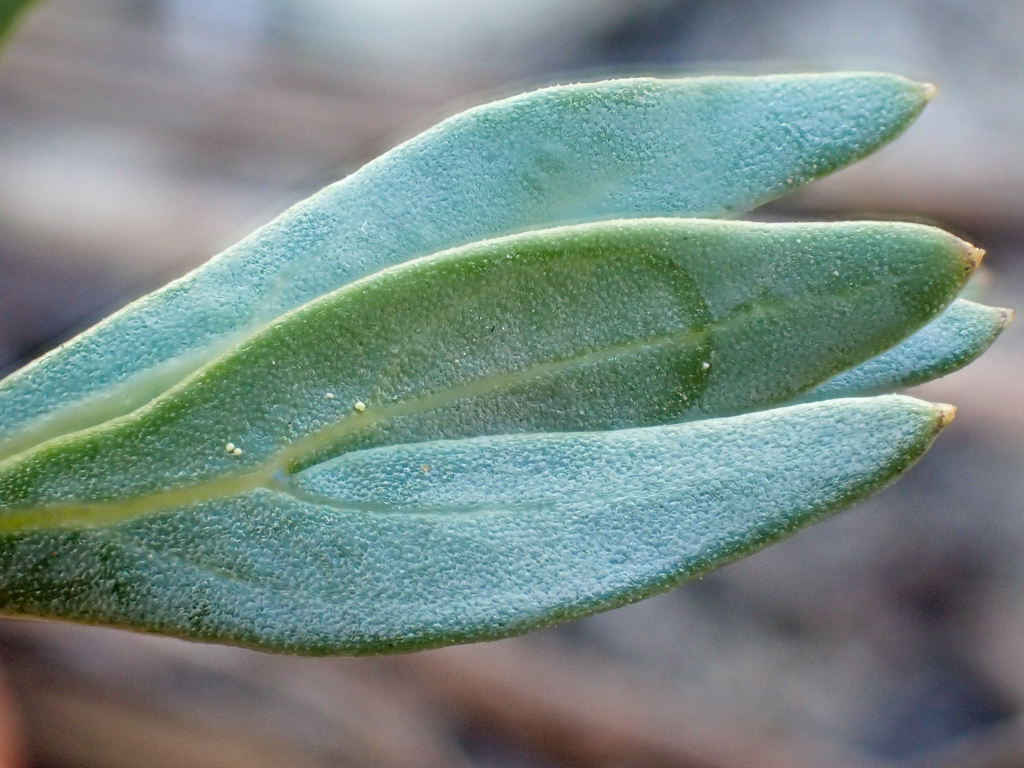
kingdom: Plantae
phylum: Tracheophyta
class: Magnoliopsida
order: Malpighiales
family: Violaceae
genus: Viola
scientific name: Viola hallii
